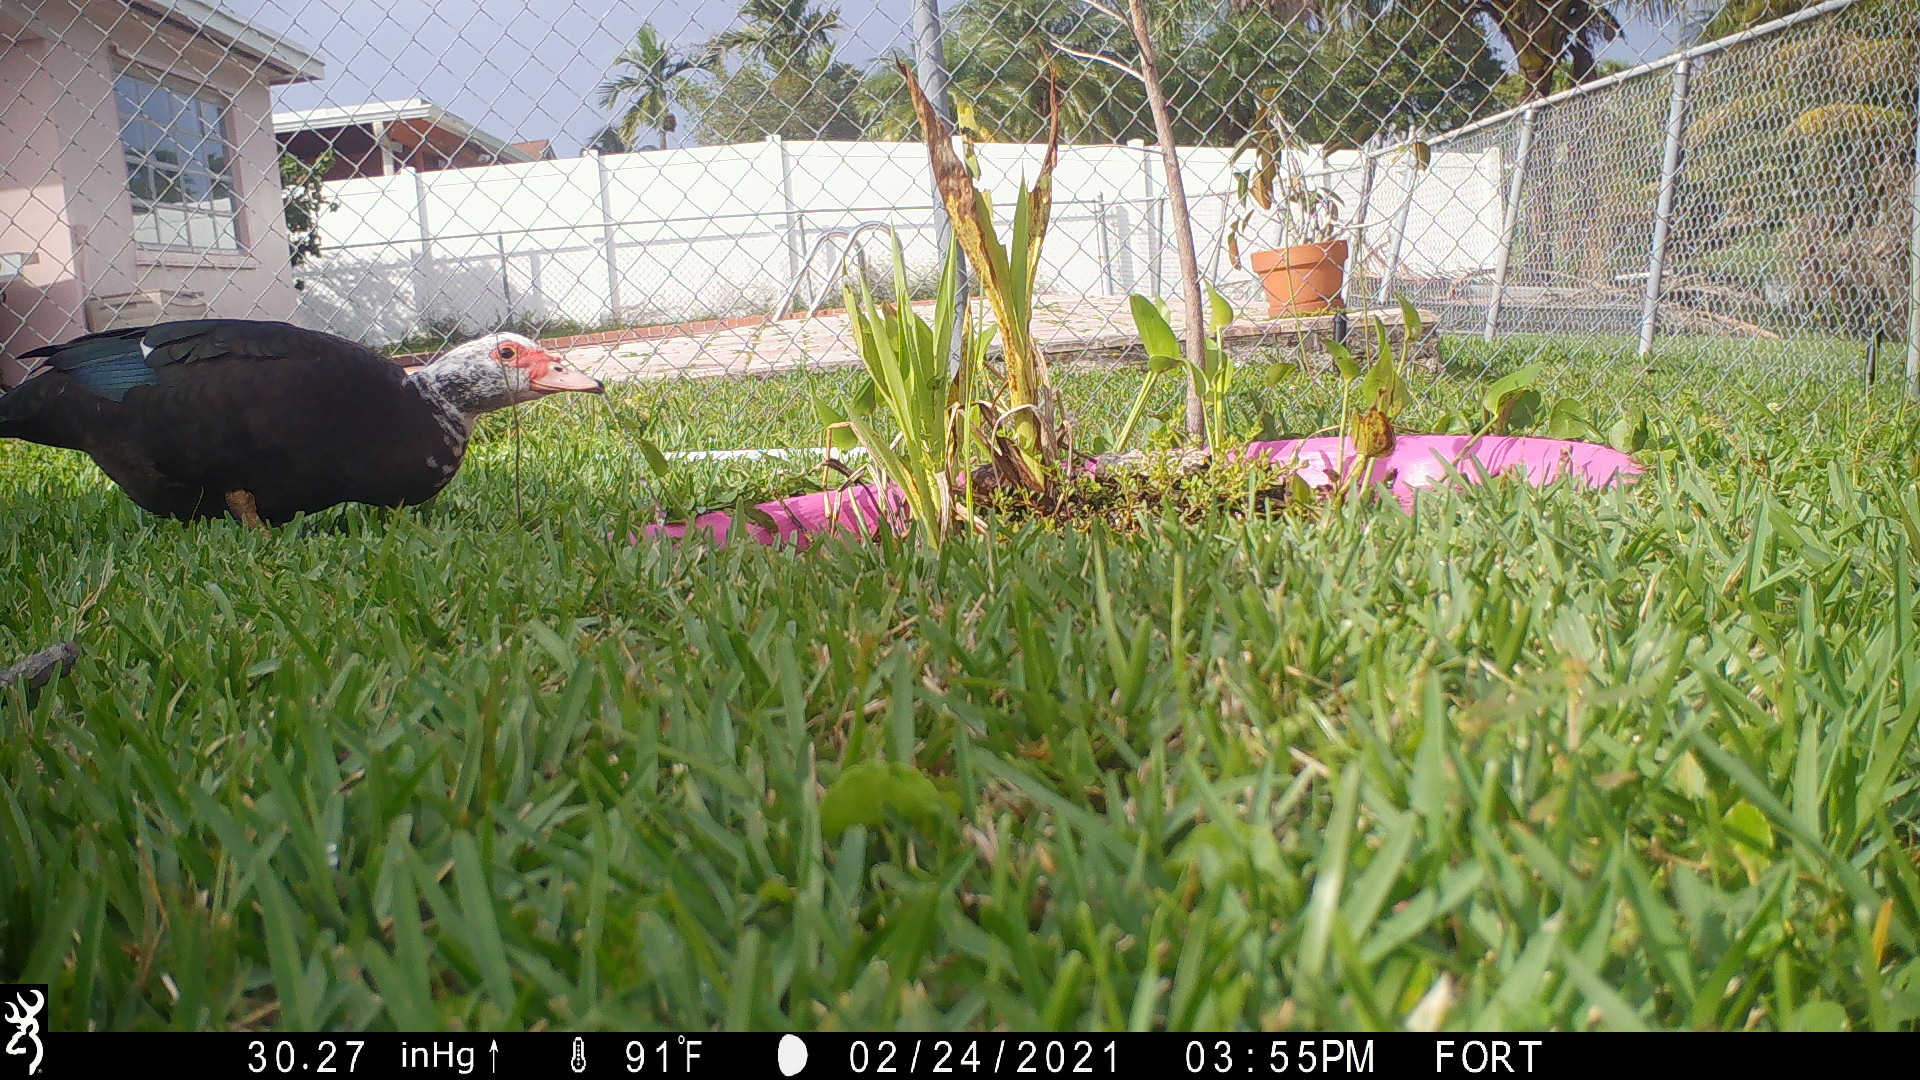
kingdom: Animalia
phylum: Chordata
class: Aves
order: Anseriformes
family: Anatidae
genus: Cairina
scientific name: Cairina moschata
